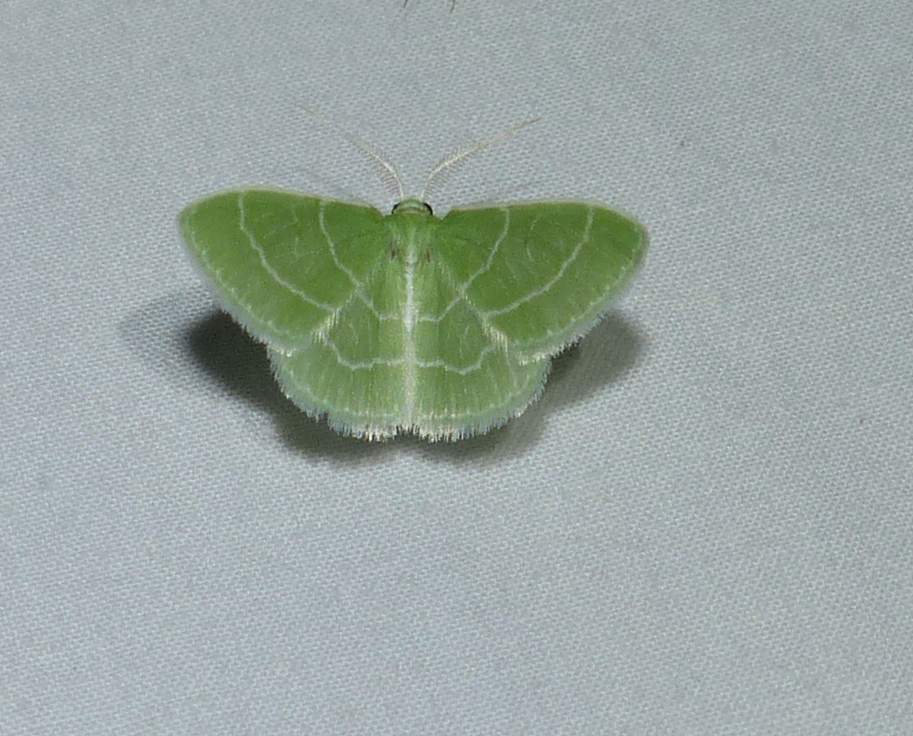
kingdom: Animalia
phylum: Arthropoda
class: Insecta
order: Lepidoptera
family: Geometridae
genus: Synchlora
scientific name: Synchlora aerata
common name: Wavy-lined emerald
